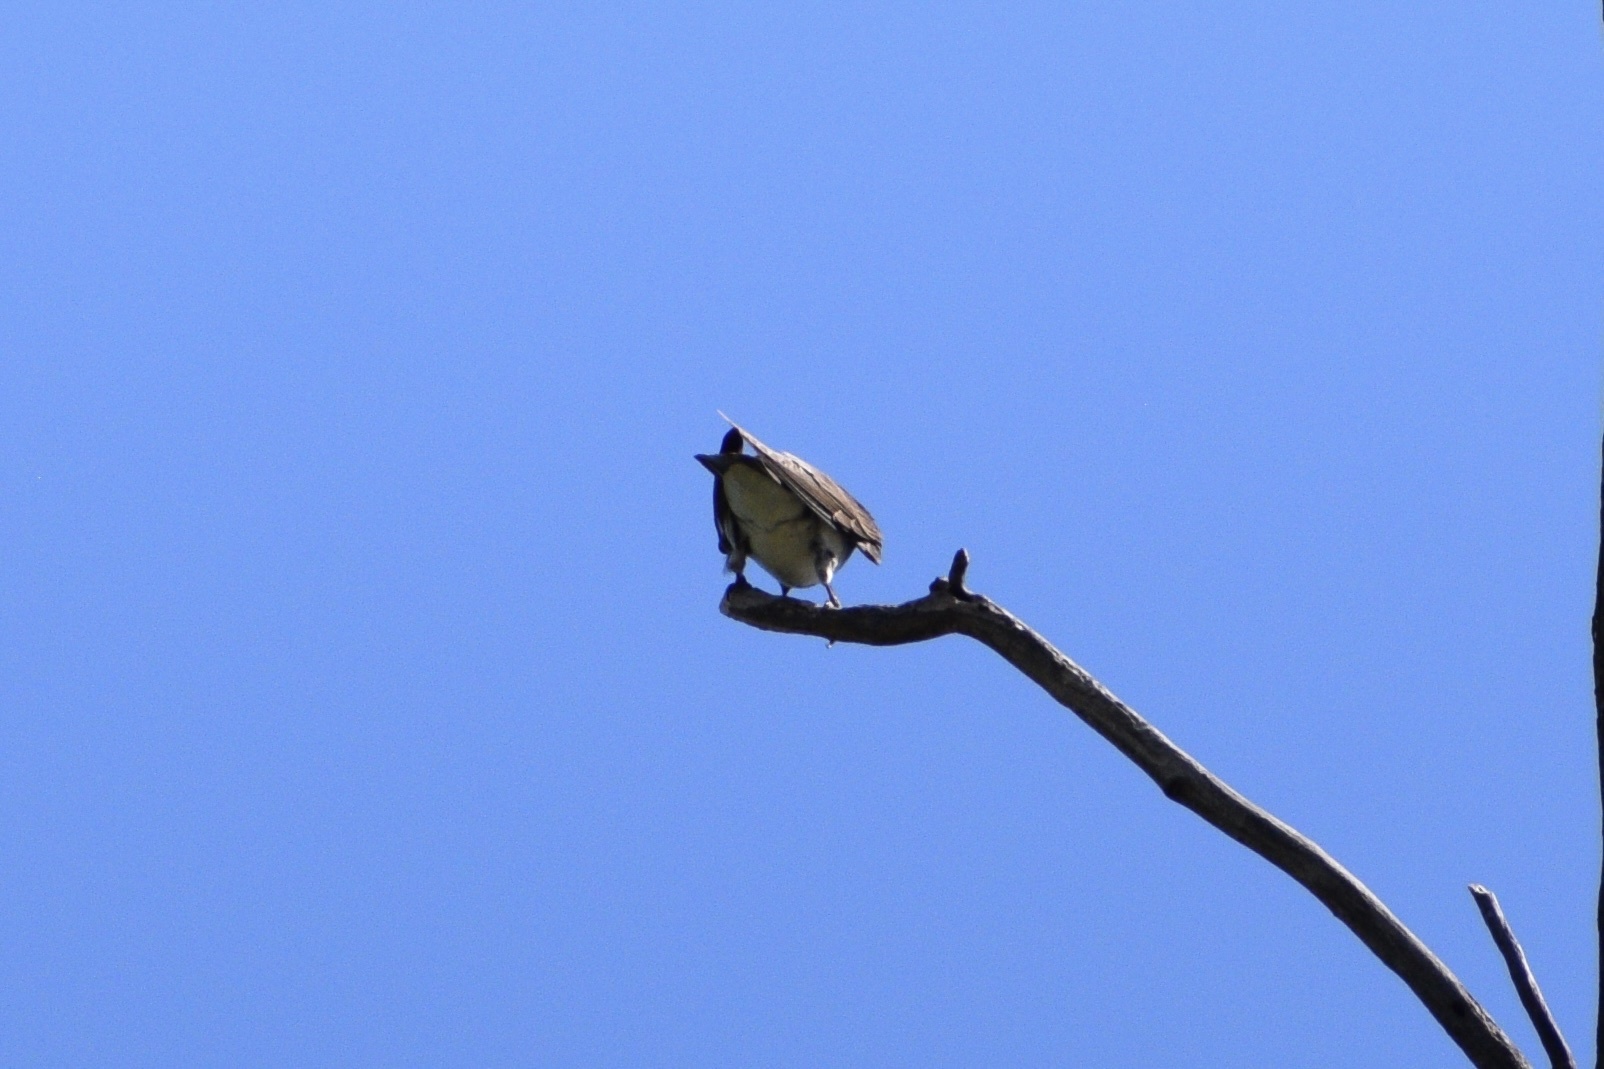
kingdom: Animalia
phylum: Chordata
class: Aves
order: Passeriformes
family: Hirundinidae
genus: Progne
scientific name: Progne tapera
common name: Brown-chested martin
